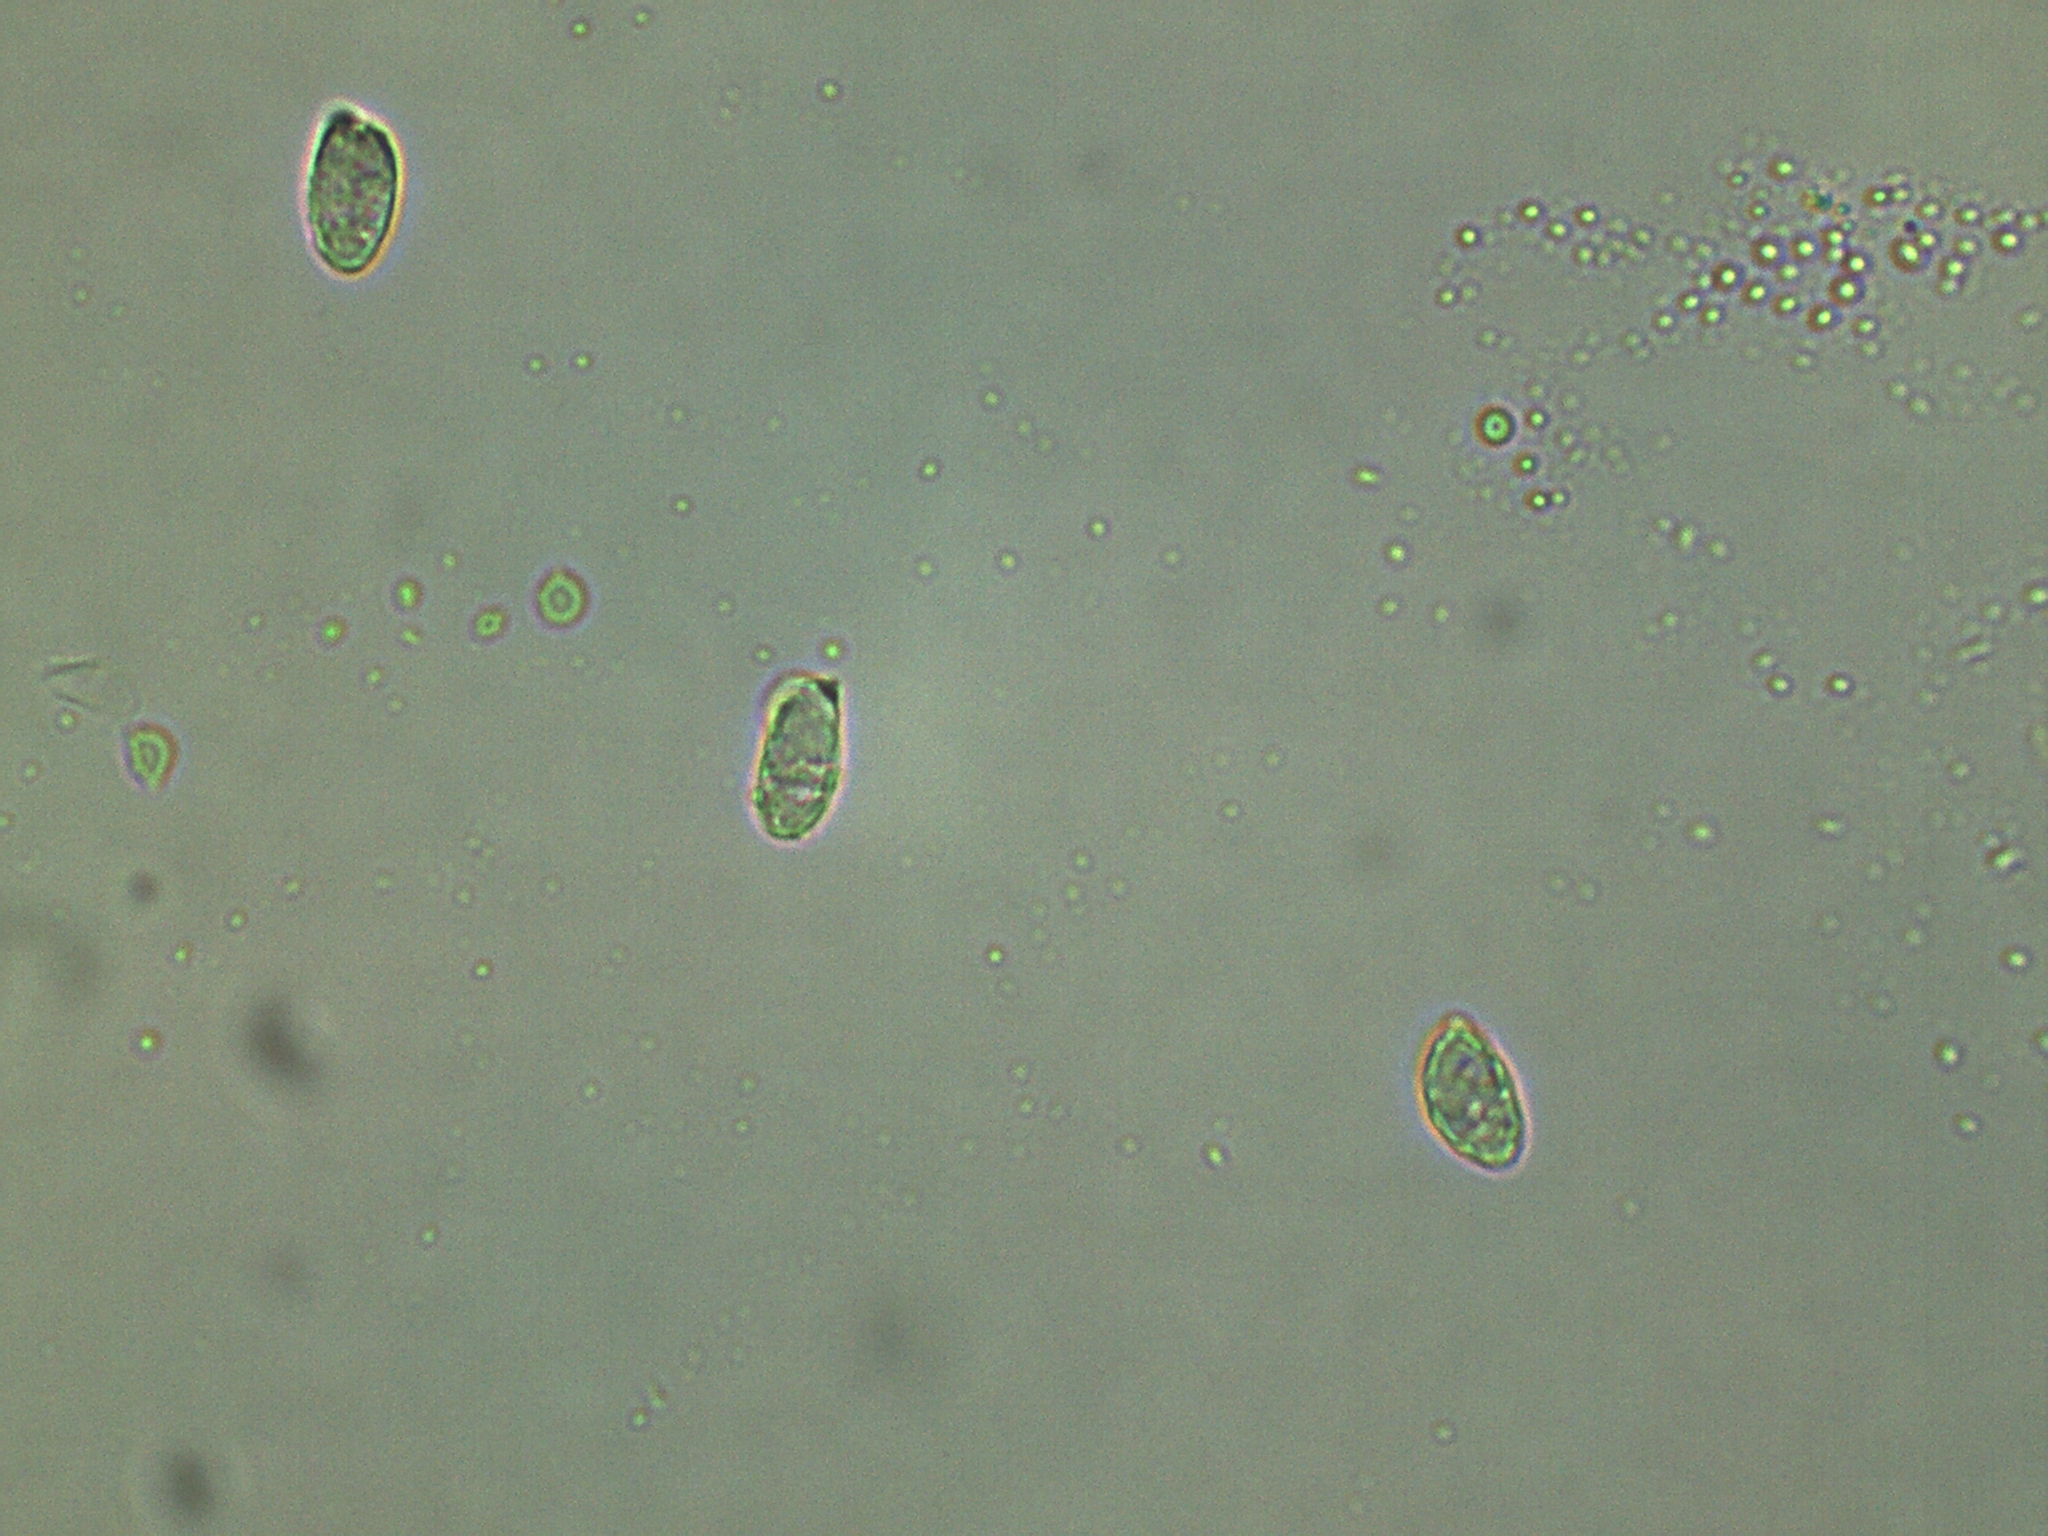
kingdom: Fungi
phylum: Basidiomycota
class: Agaricomycetes
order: Gomphales
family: Clavariadelphaceae
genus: Clavariadelphus
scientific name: Clavariadelphus americanus
